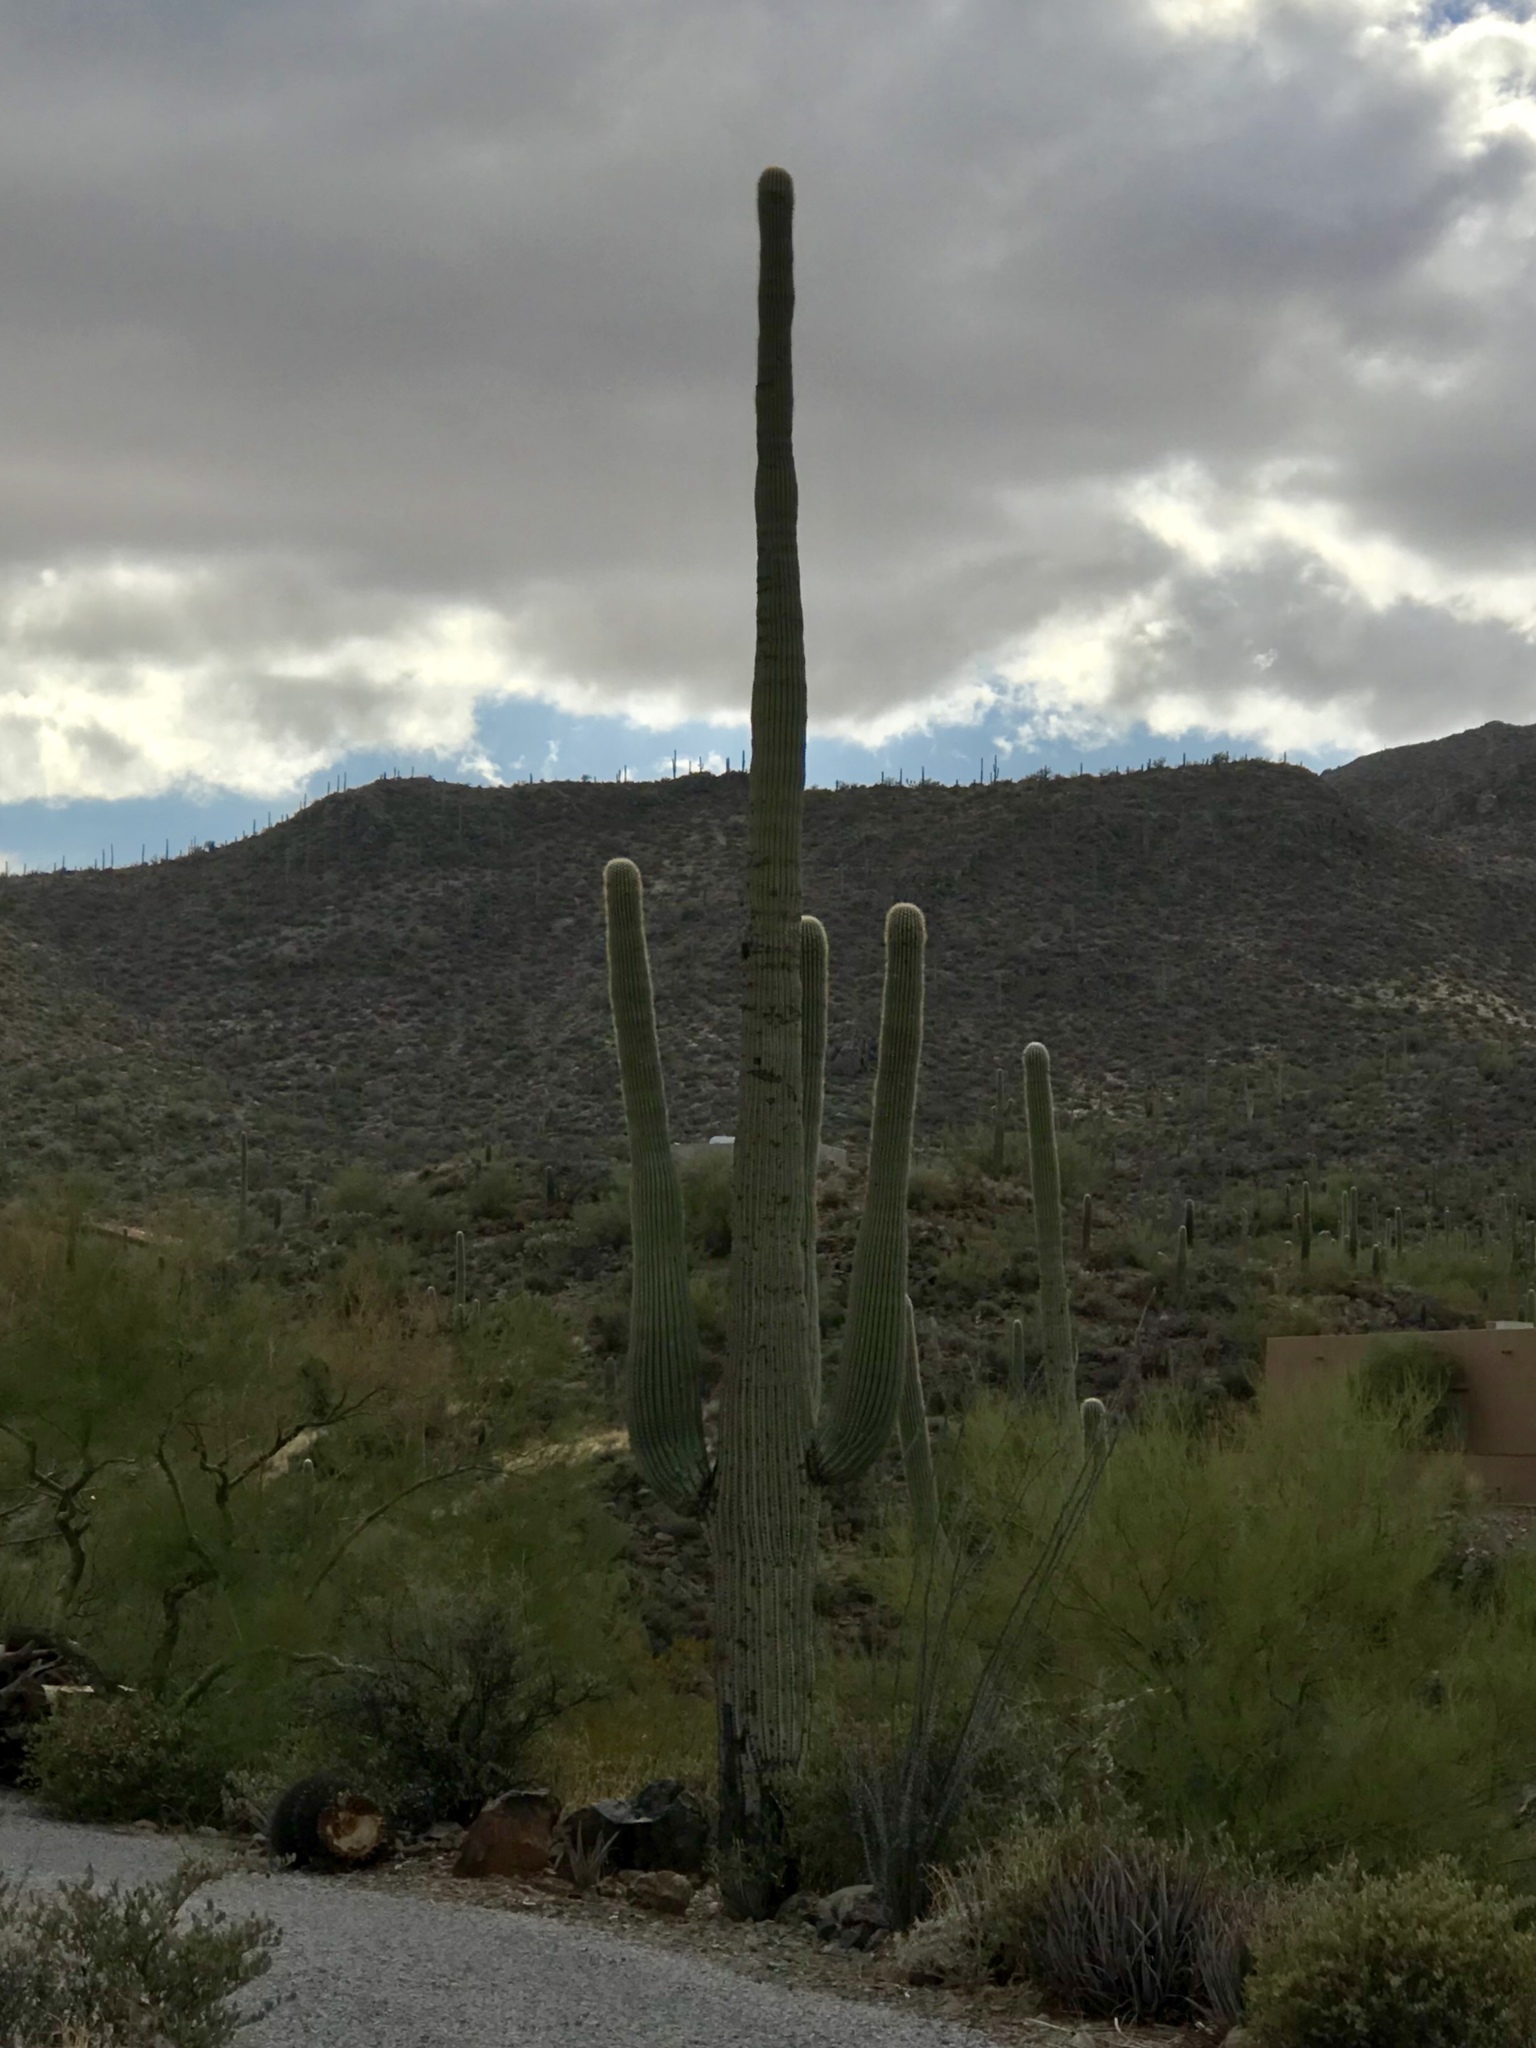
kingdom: Plantae
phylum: Tracheophyta
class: Magnoliopsida
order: Caryophyllales
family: Cactaceae
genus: Carnegiea
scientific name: Carnegiea gigantea
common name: Saguaro
